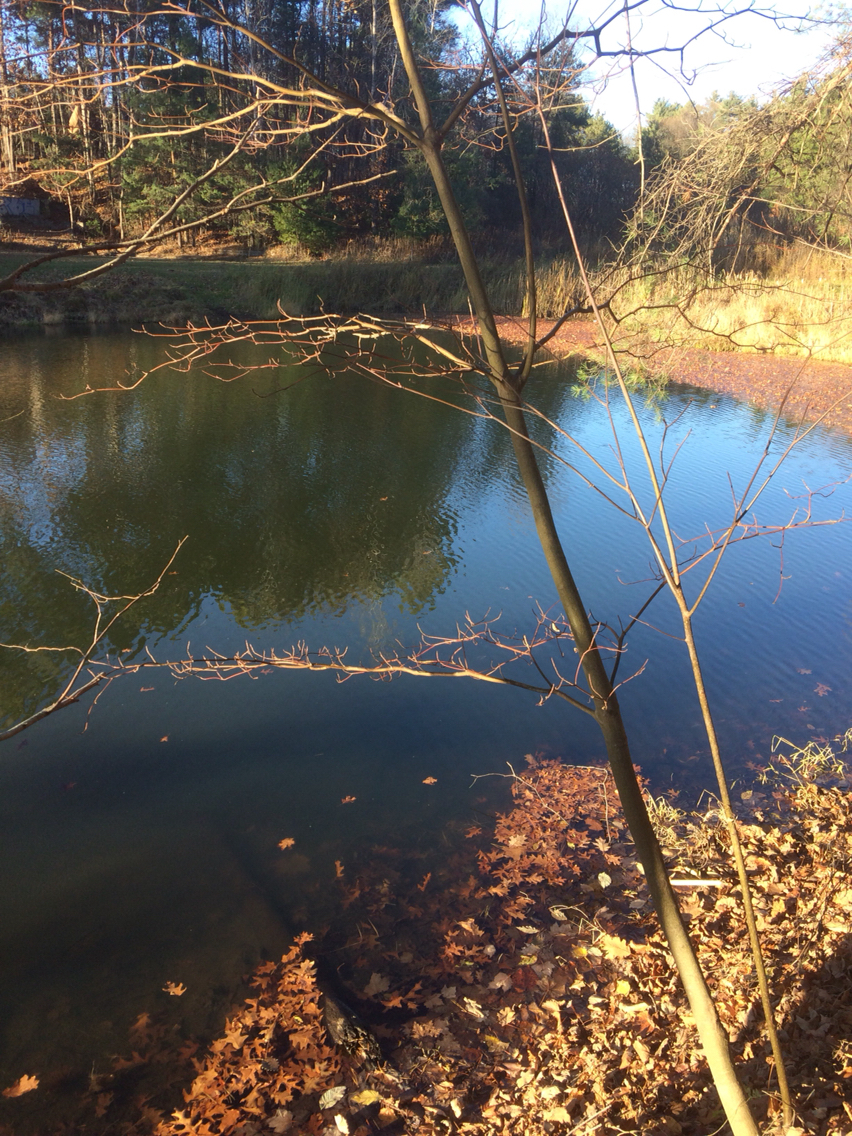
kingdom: Plantae
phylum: Tracheophyta
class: Magnoliopsida
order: Cornales
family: Cornaceae
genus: Cornus
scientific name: Cornus alternifolia
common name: Pagoda dogwood
